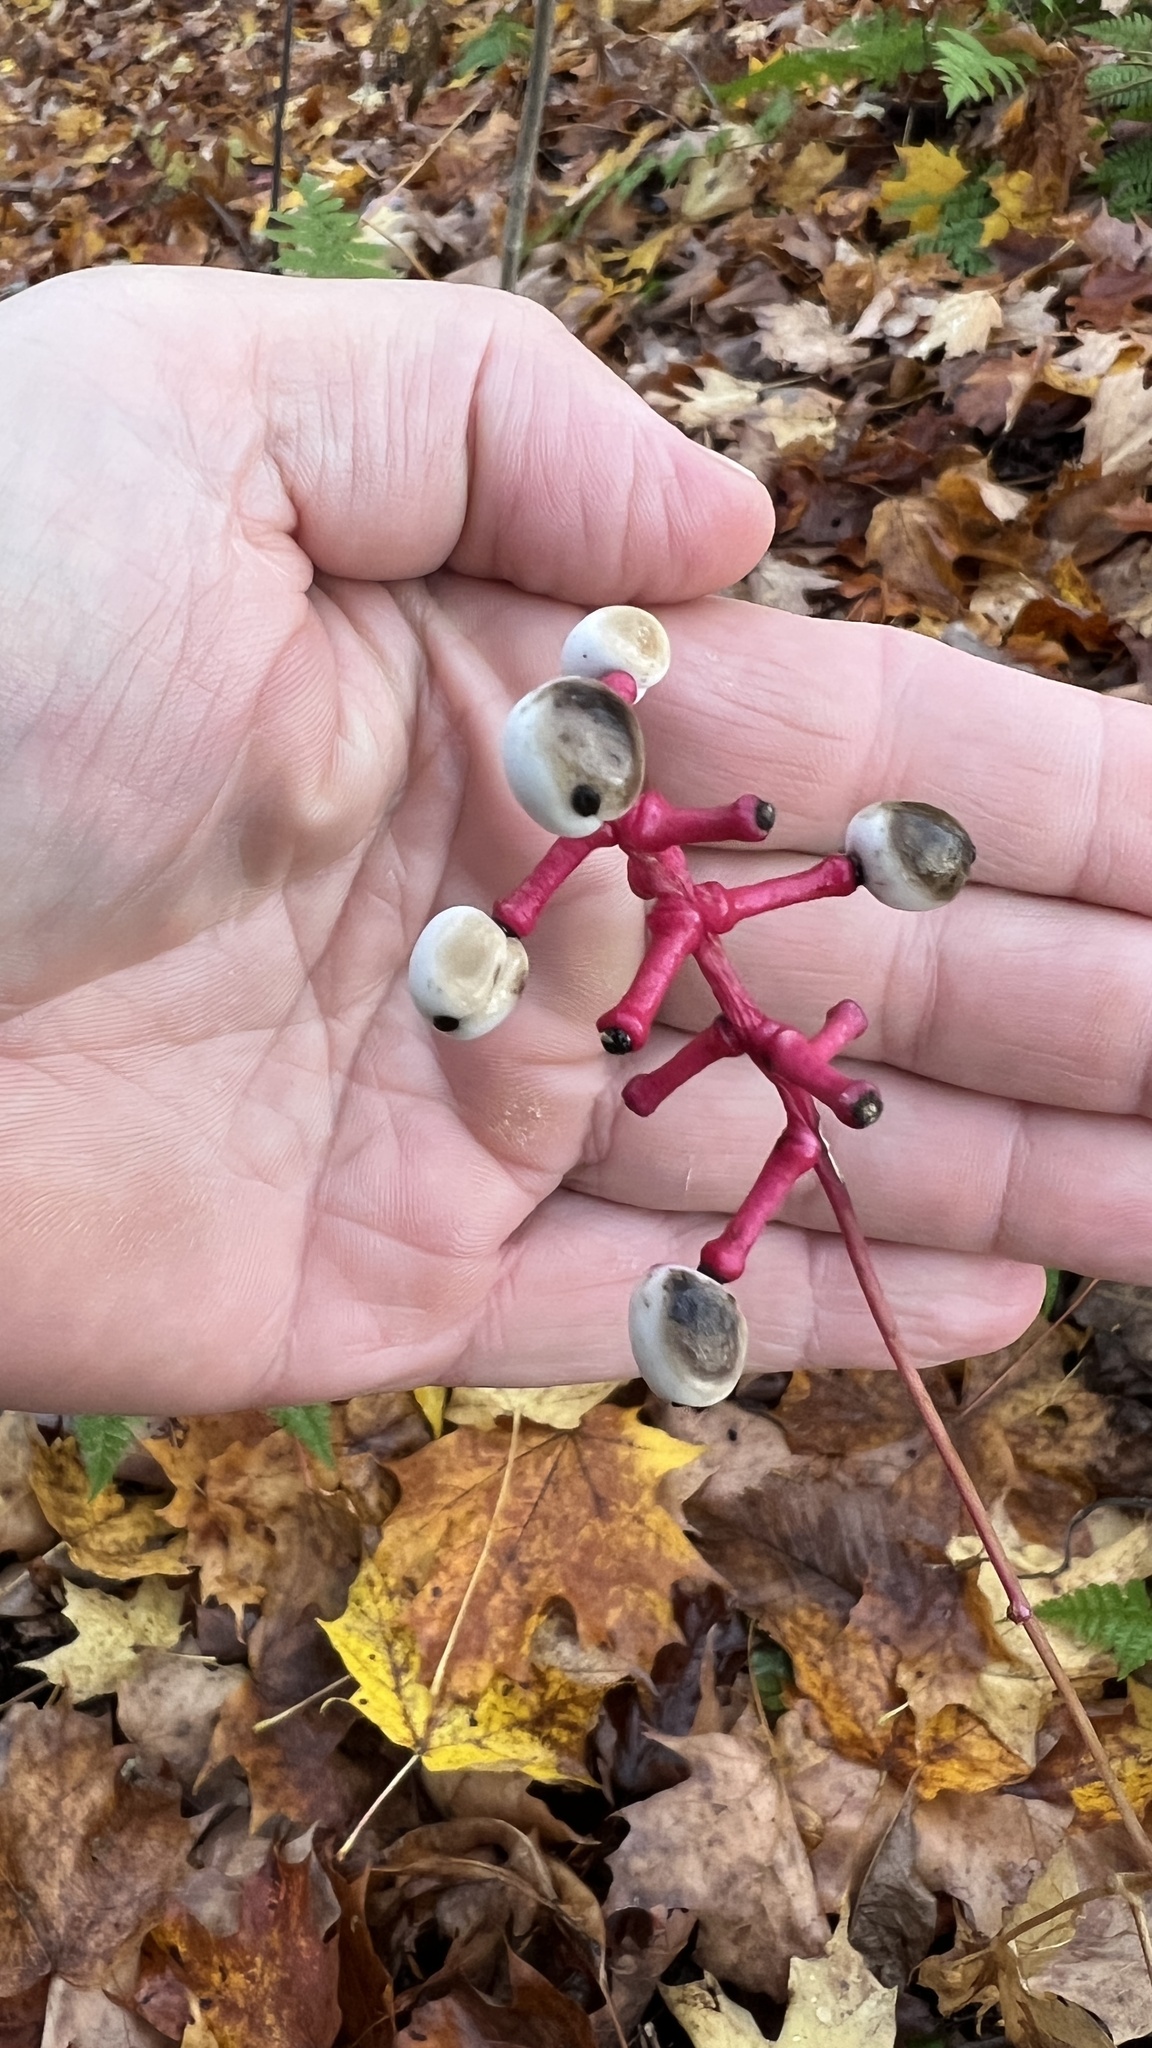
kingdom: Plantae
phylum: Tracheophyta
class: Magnoliopsida
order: Ranunculales
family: Ranunculaceae
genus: Actaea
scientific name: Actaea pachypoda
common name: Doll's-eyes
